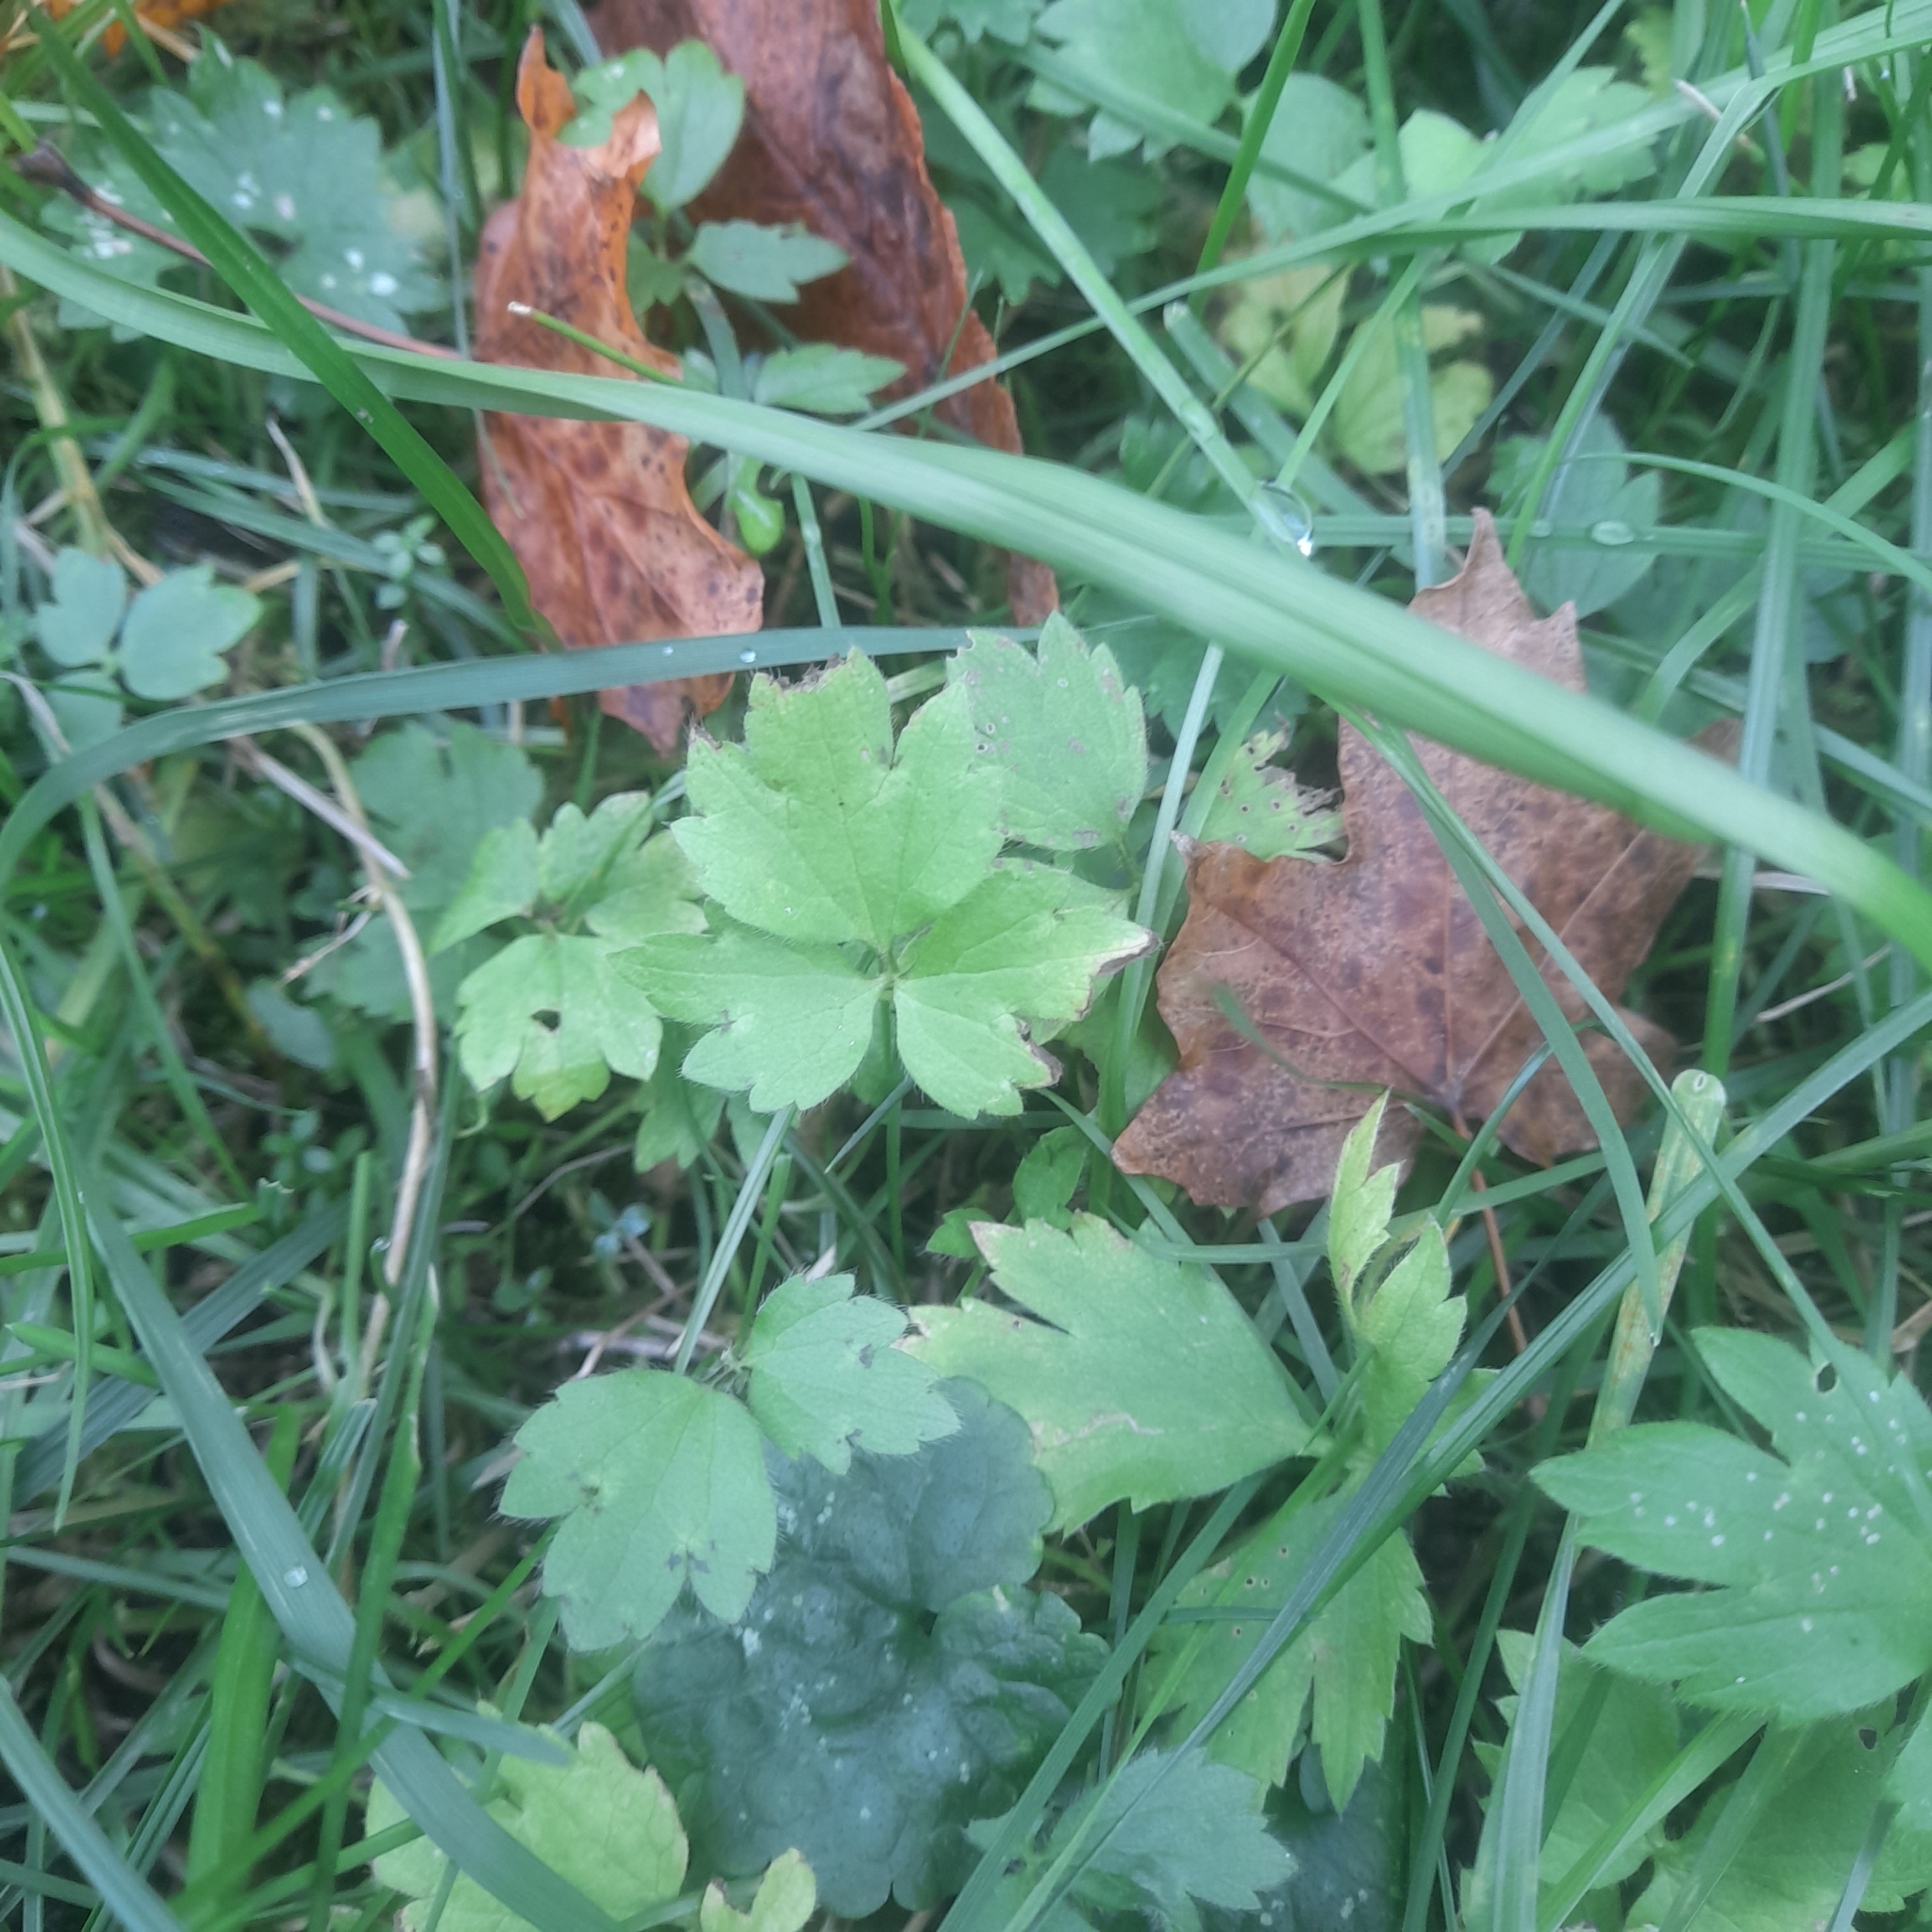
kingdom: Plantae
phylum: Tracheophyta
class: Magnoliopsida
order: Ranunculales
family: Ranunculaceae
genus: Ranunculus
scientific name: Ranunculus repens
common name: Creeping buttercup
